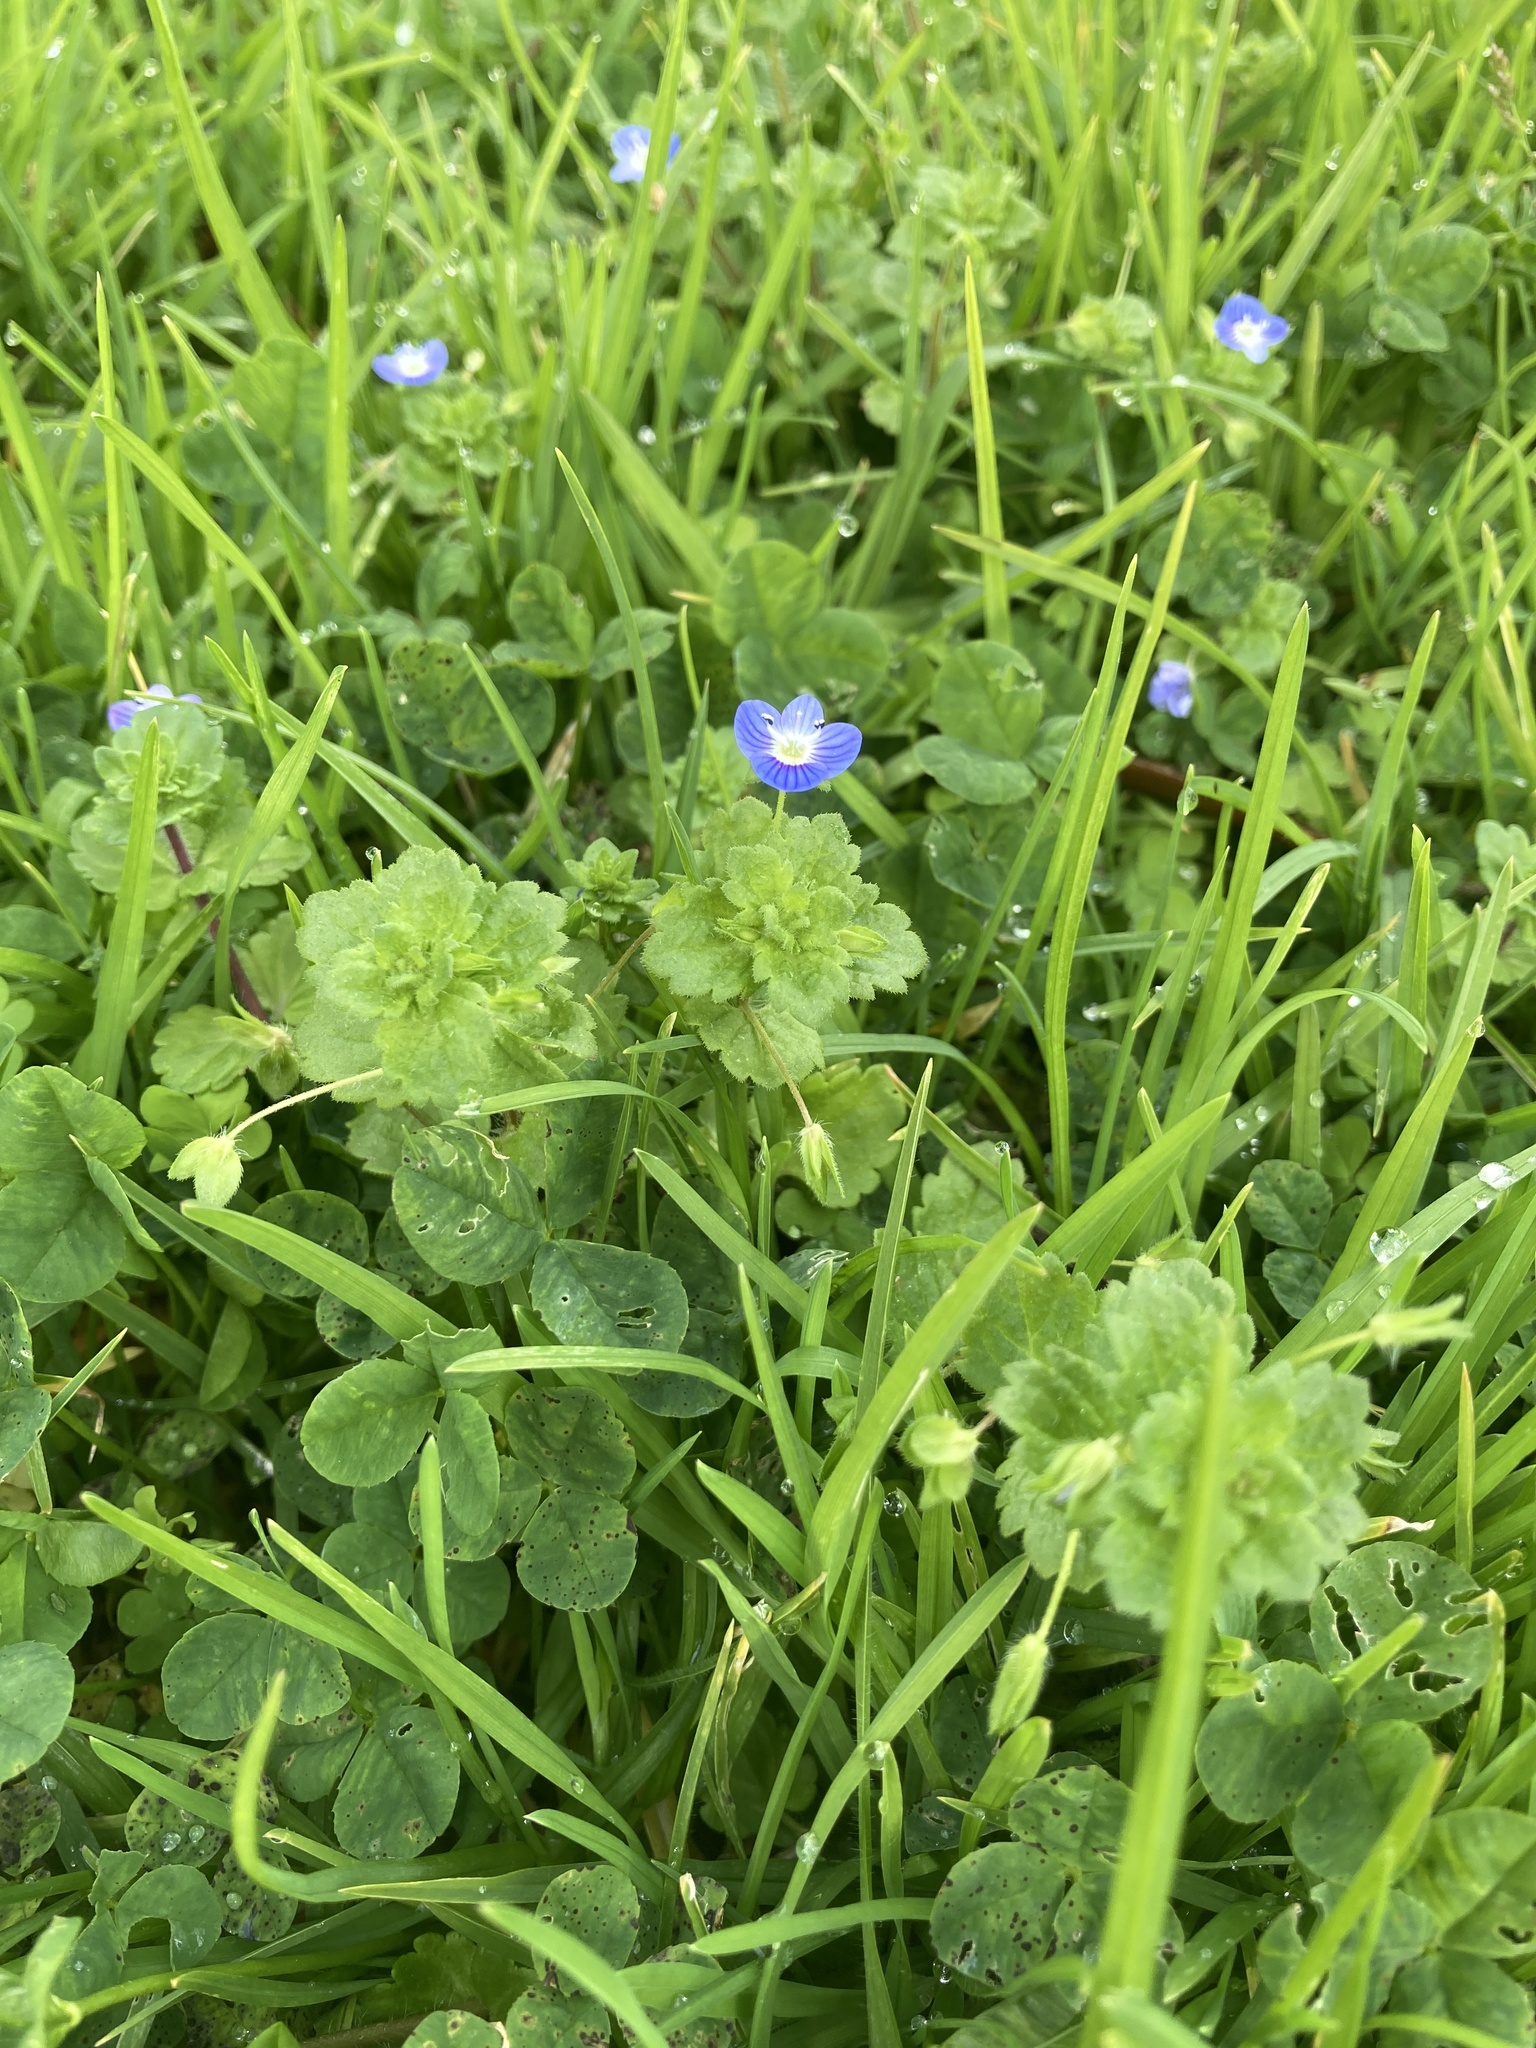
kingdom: Plantae
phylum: Tracheophyta
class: Magnoliopsida
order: Lamiales
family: Plantaginaceae
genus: Veronica
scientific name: Veronica persica
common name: Common field-speedwell
